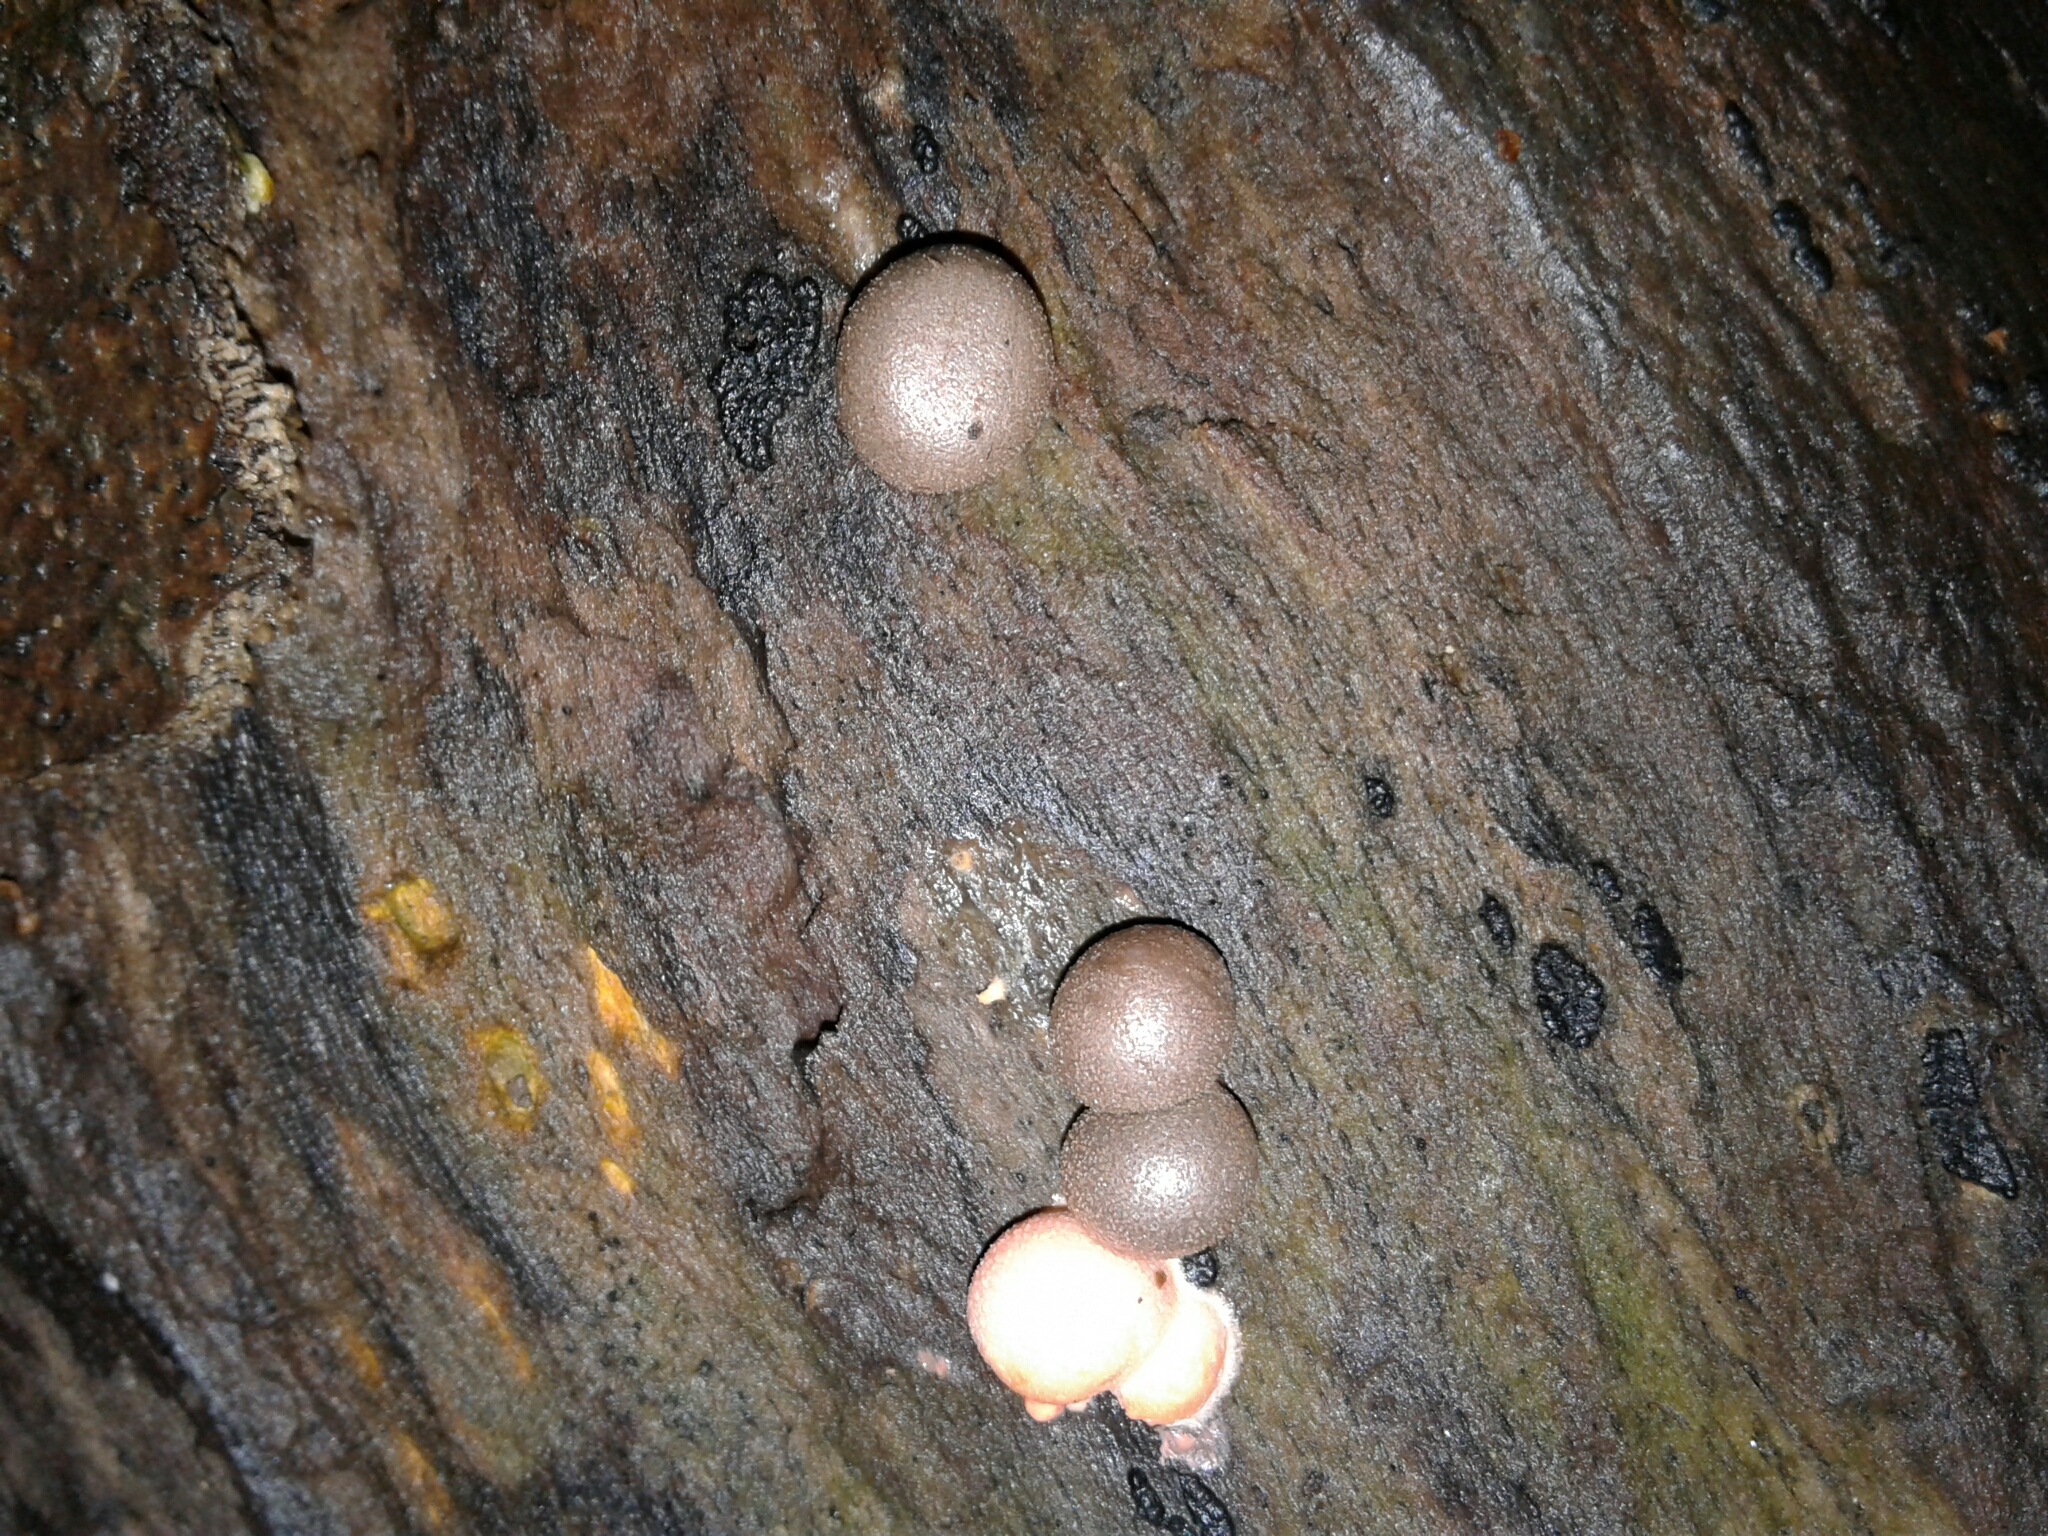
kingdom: Protozoa
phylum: Mycetozoa
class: Myxomycetes
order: Cribrariales
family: Tubiferaceae
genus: Lycogala
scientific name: Lycogala epidendrum
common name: Wolf's milk
